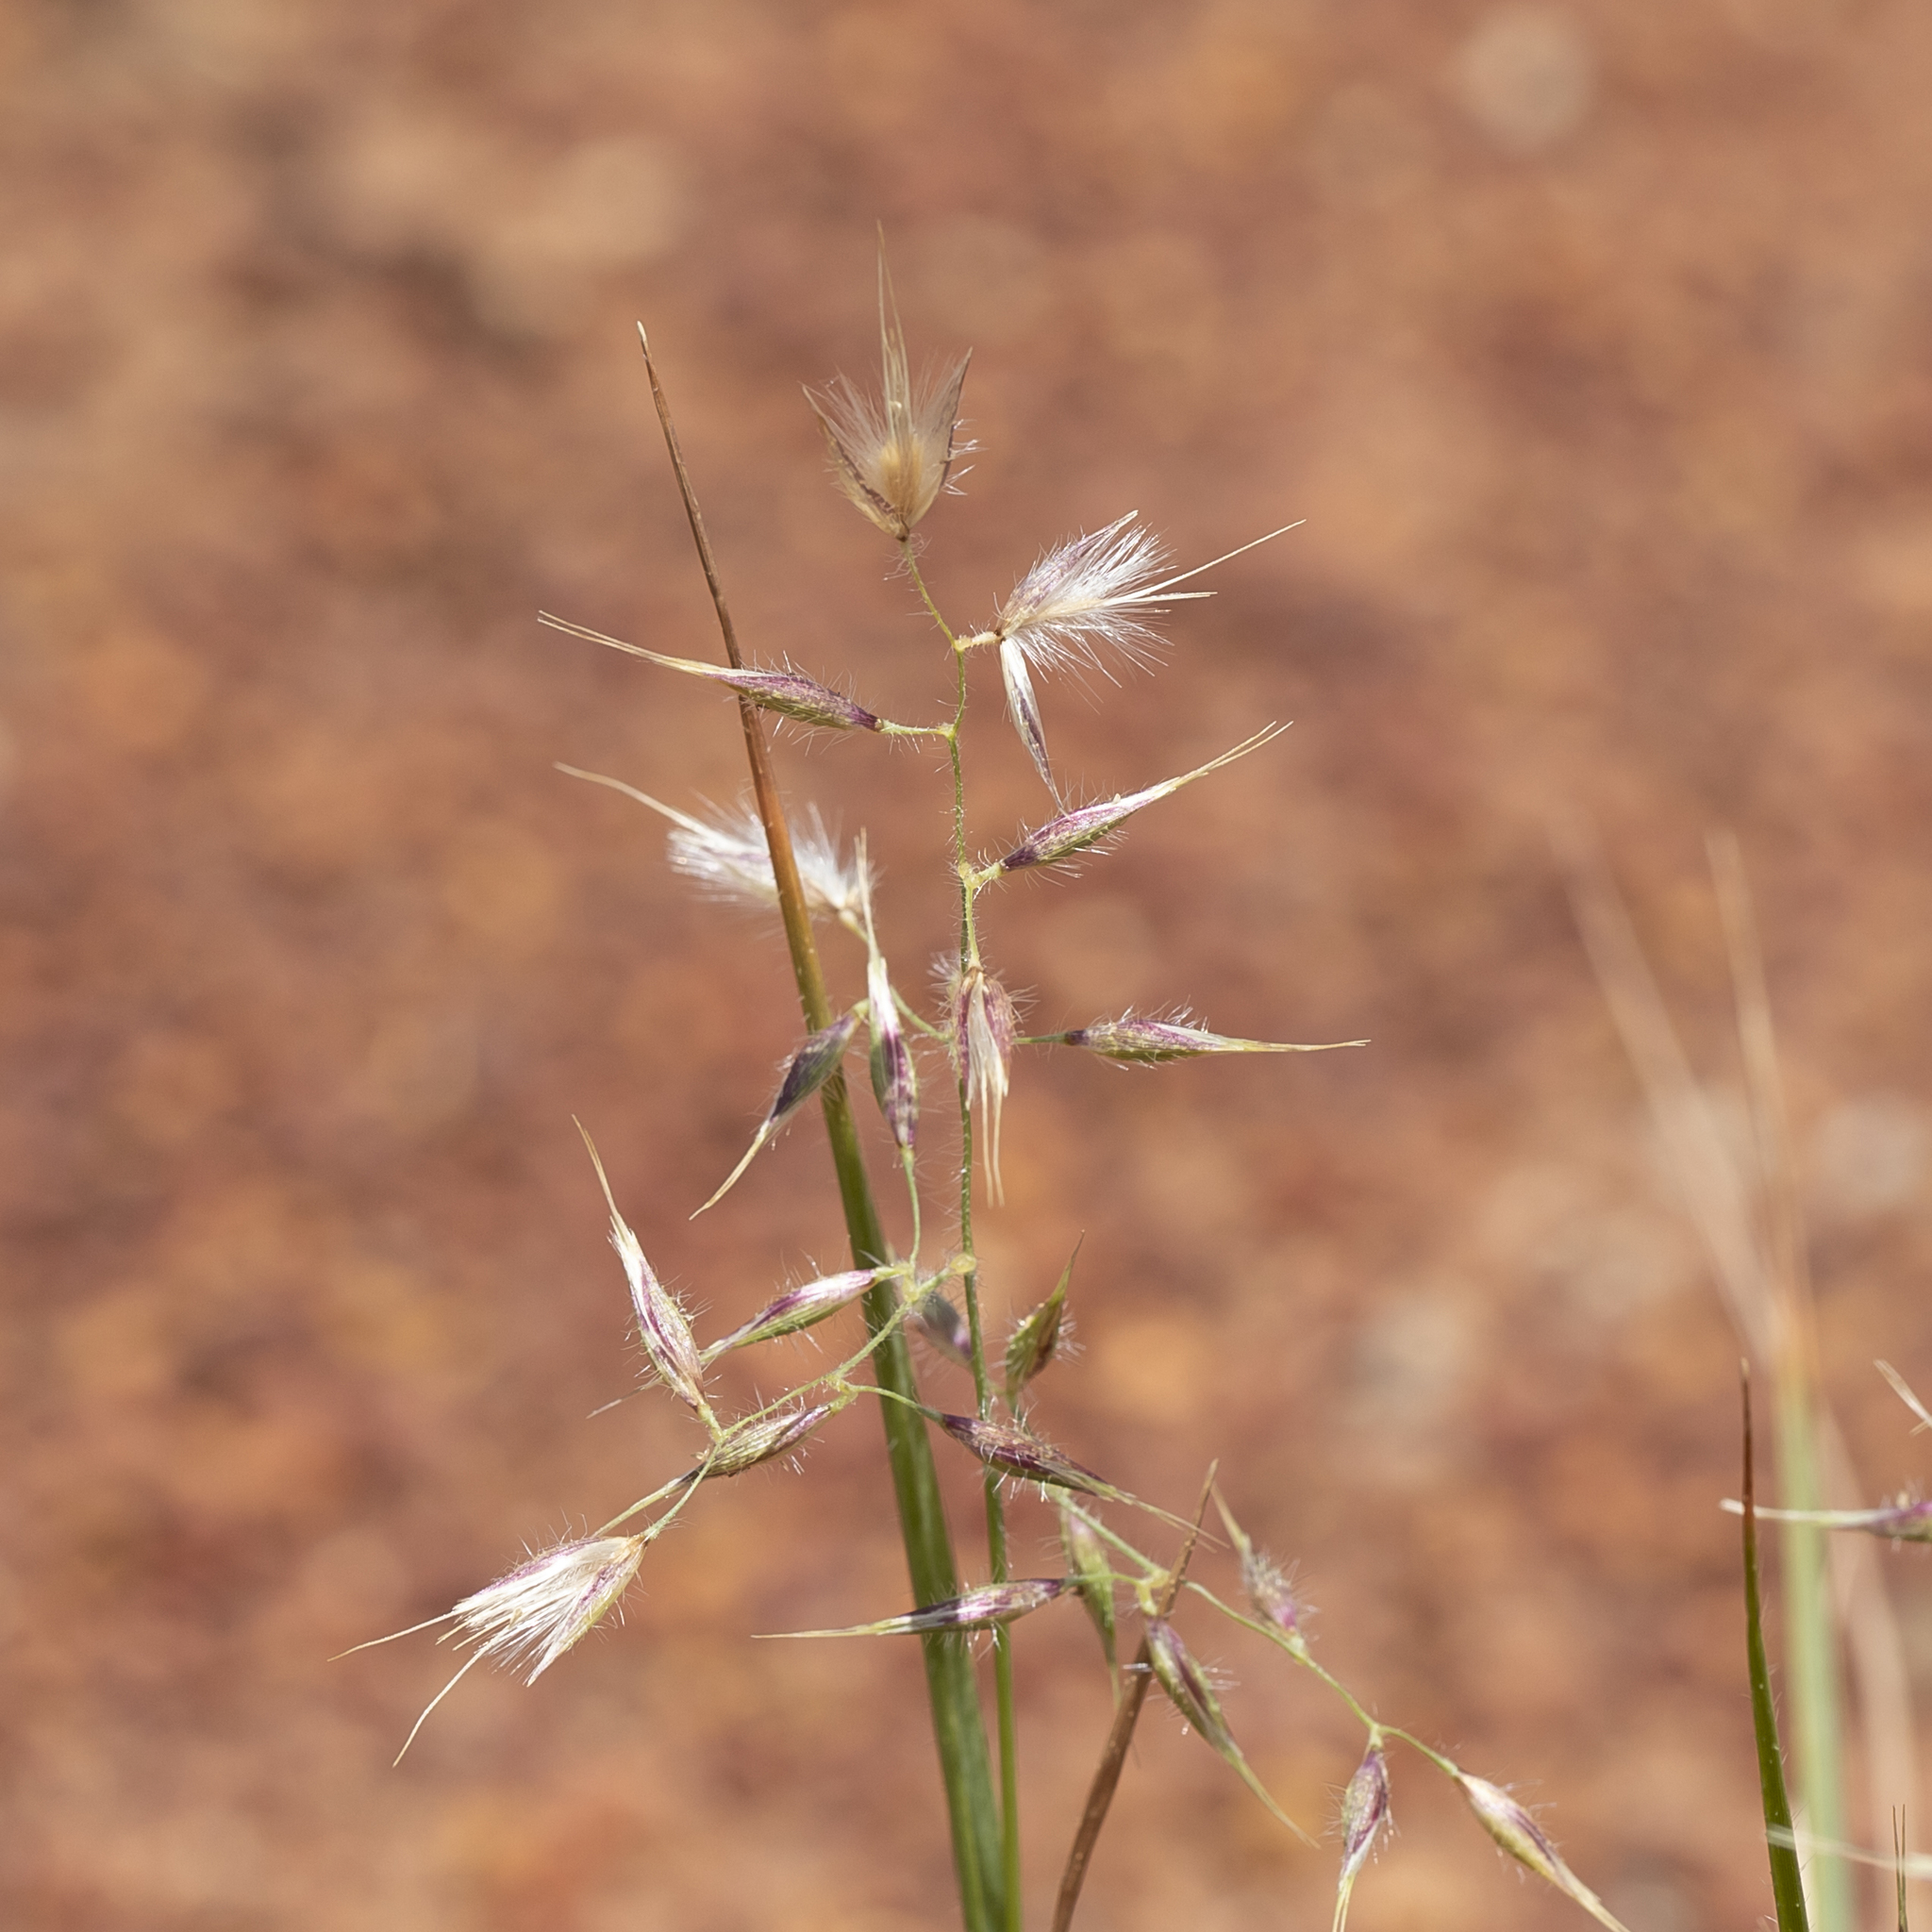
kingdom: Plantae
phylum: Tracheophyta
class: Liliopsida
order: Poales
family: Poaceae
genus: Eriachne
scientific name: Eriachne aristidea
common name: Three-awn wanderrie grass
